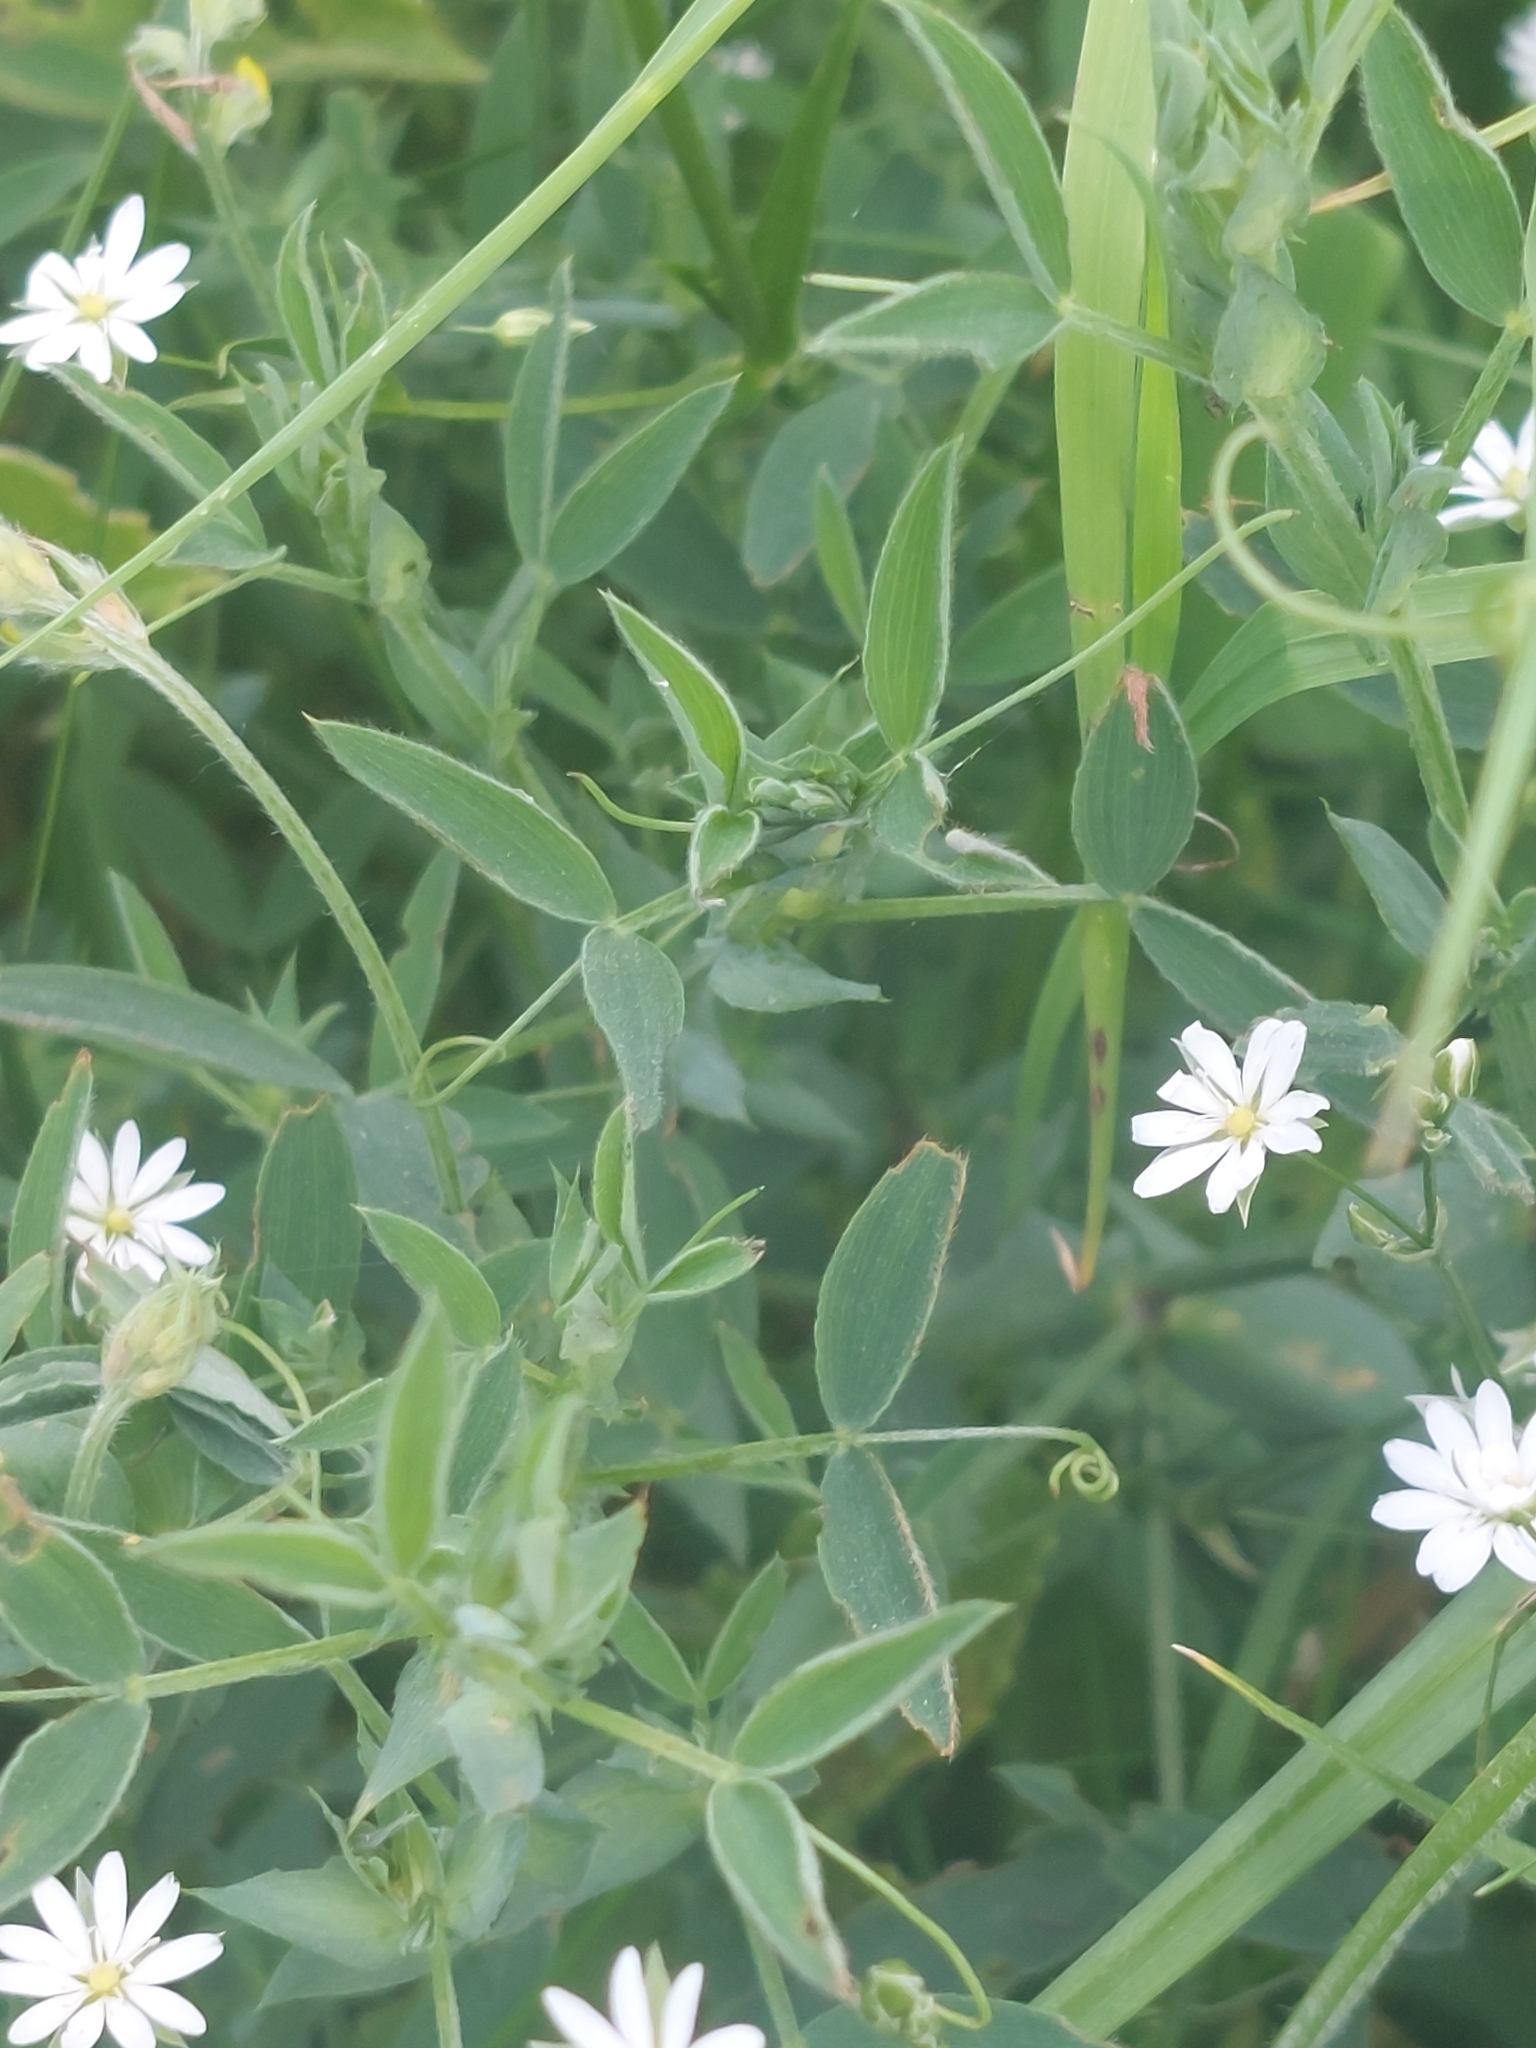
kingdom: Plantae
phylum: Tracheophyta
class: Magnoliopsida
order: Caryophyllales
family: Caryophyllaceae
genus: Stellaria
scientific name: Stellaria graminea
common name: Grass-like starwort
